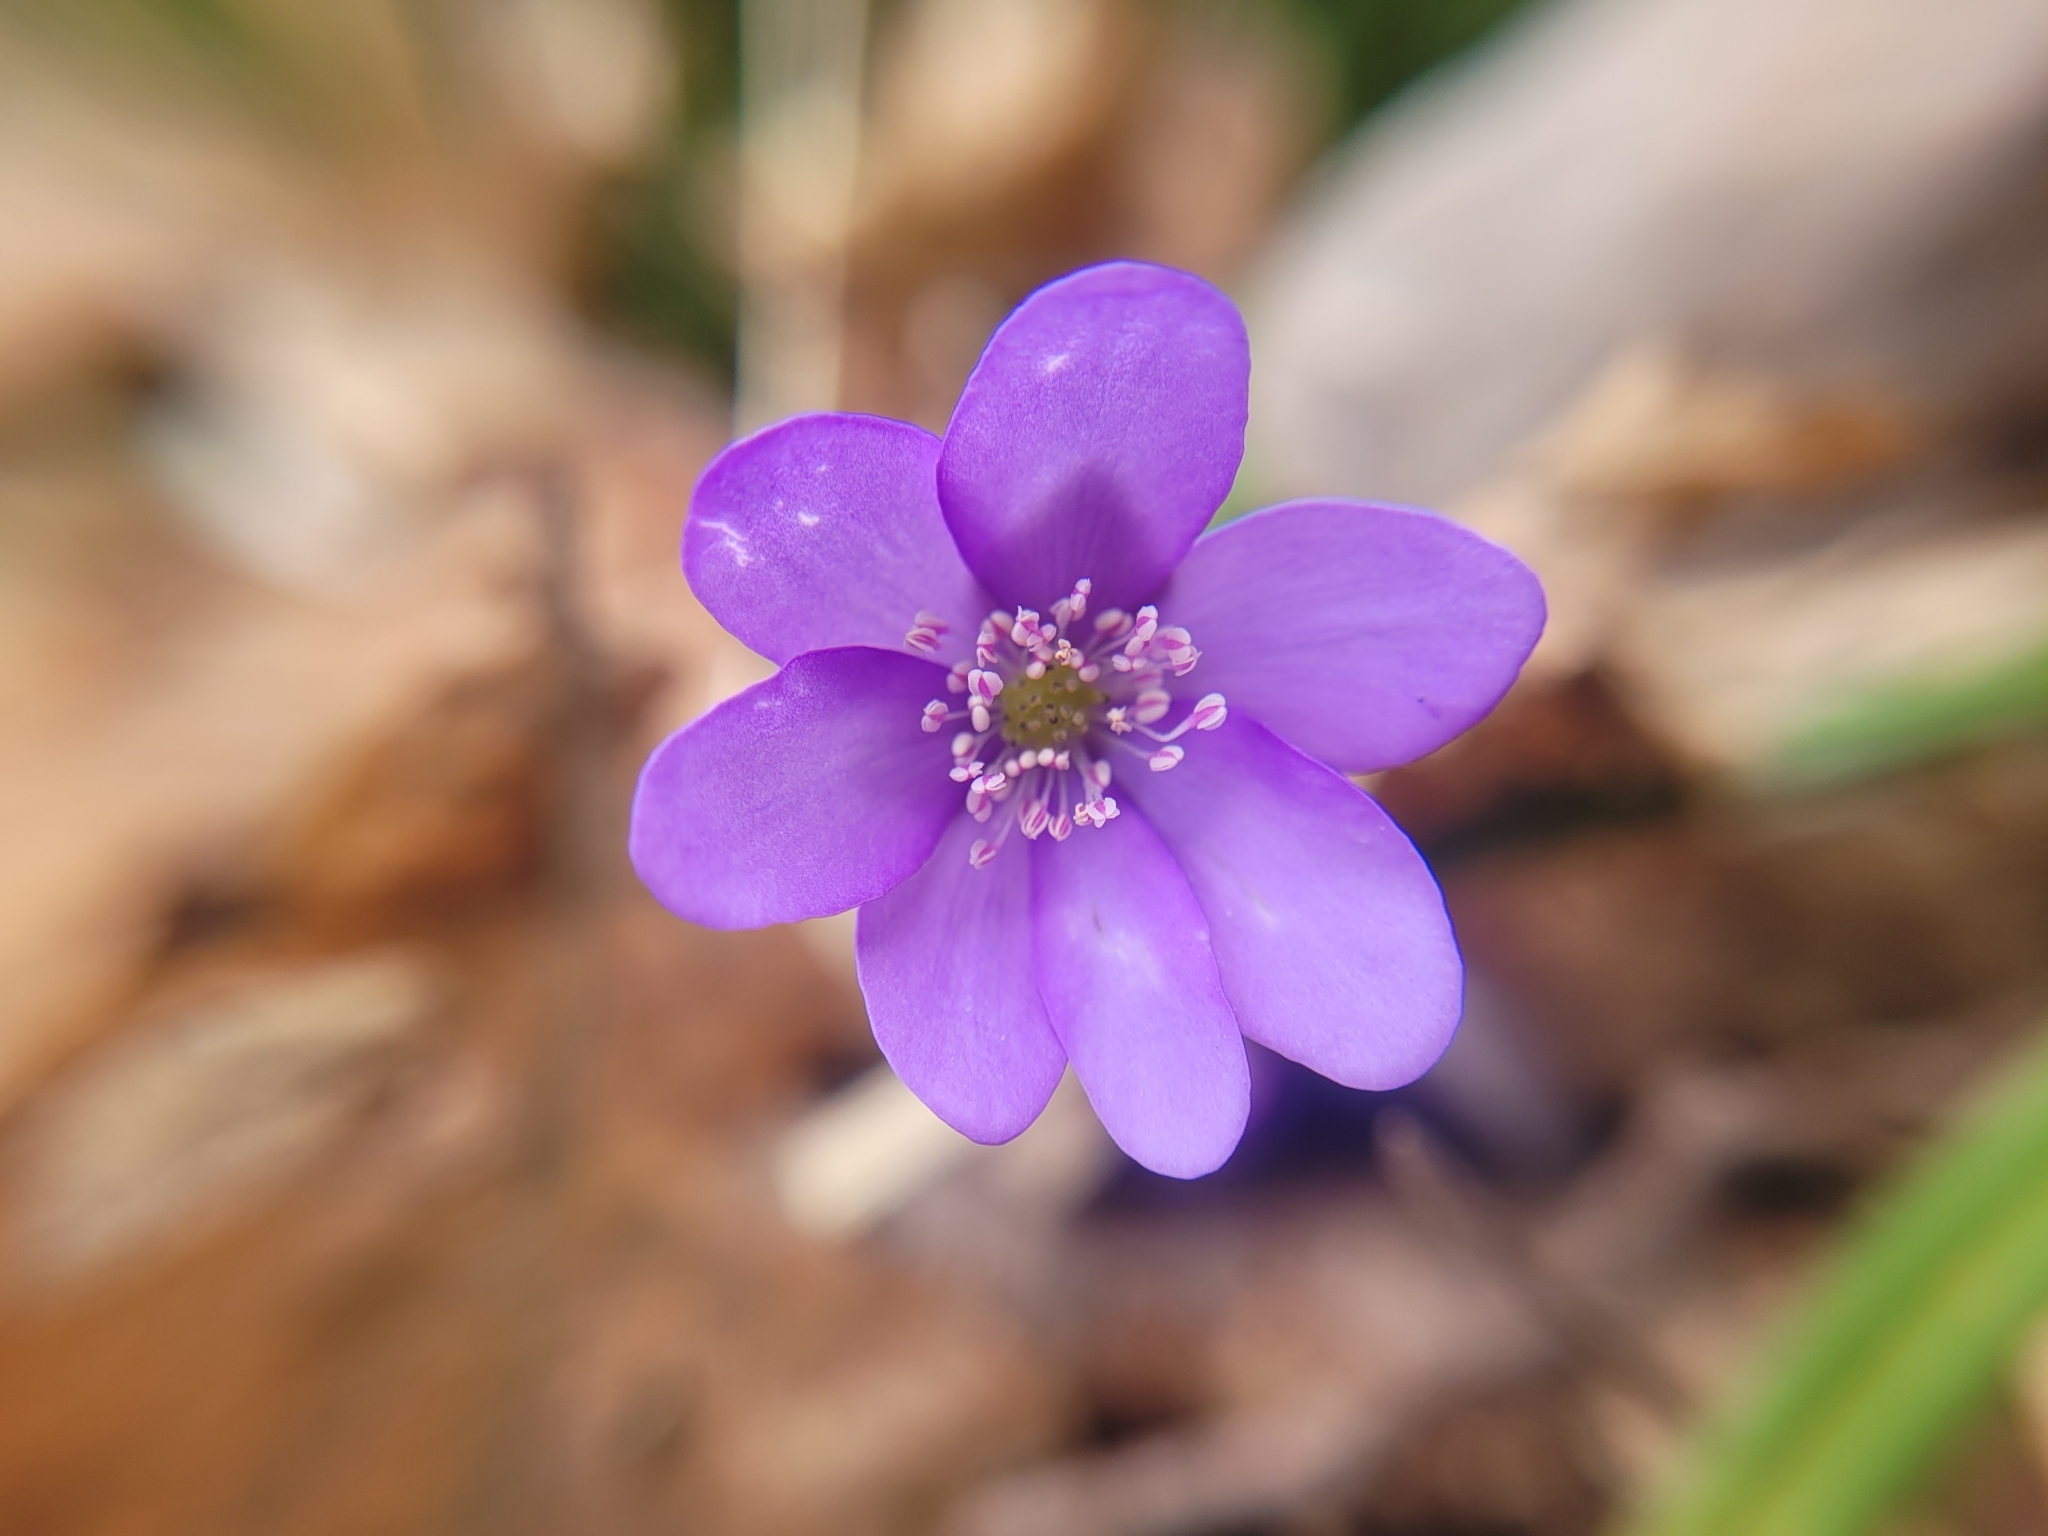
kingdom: Plantae
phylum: Tracheophyta
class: Magnoliopsida
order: Ranunculales
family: Ranunculaceae
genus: Hepatica
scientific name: Hepatica nobilis
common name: Liverleaf
